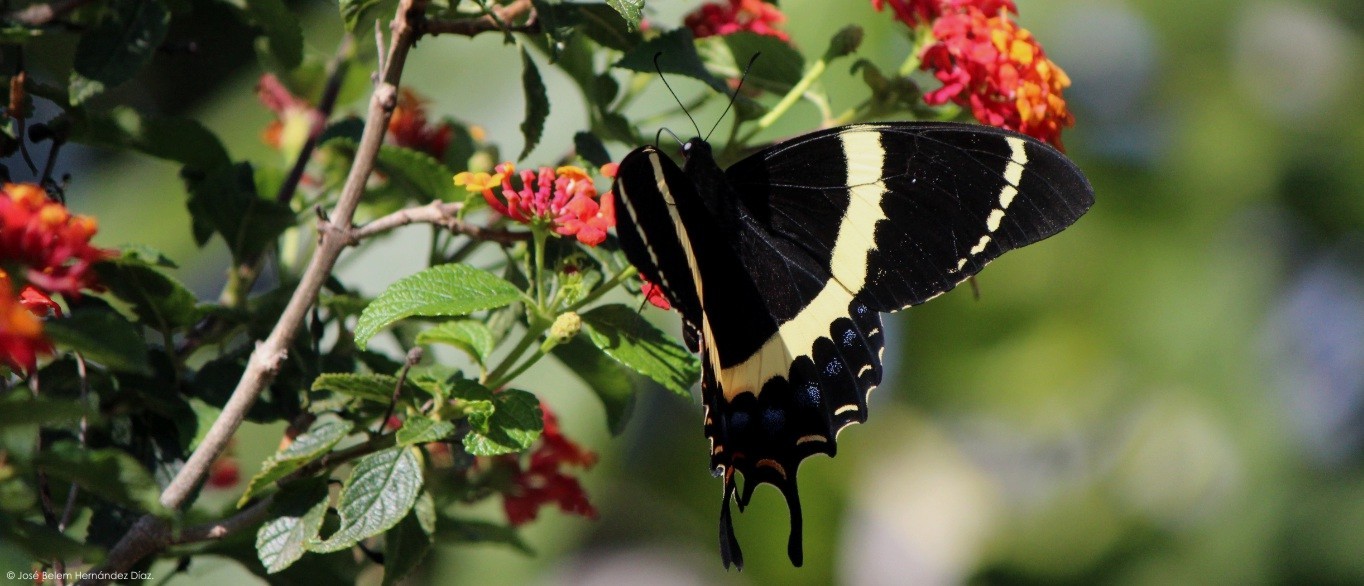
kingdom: Animalia
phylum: Arthropoda
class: Insecta
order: Lepidoptera
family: Papilionidae
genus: Papilio
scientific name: Papilio garamas
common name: Magnificent swallowtail
